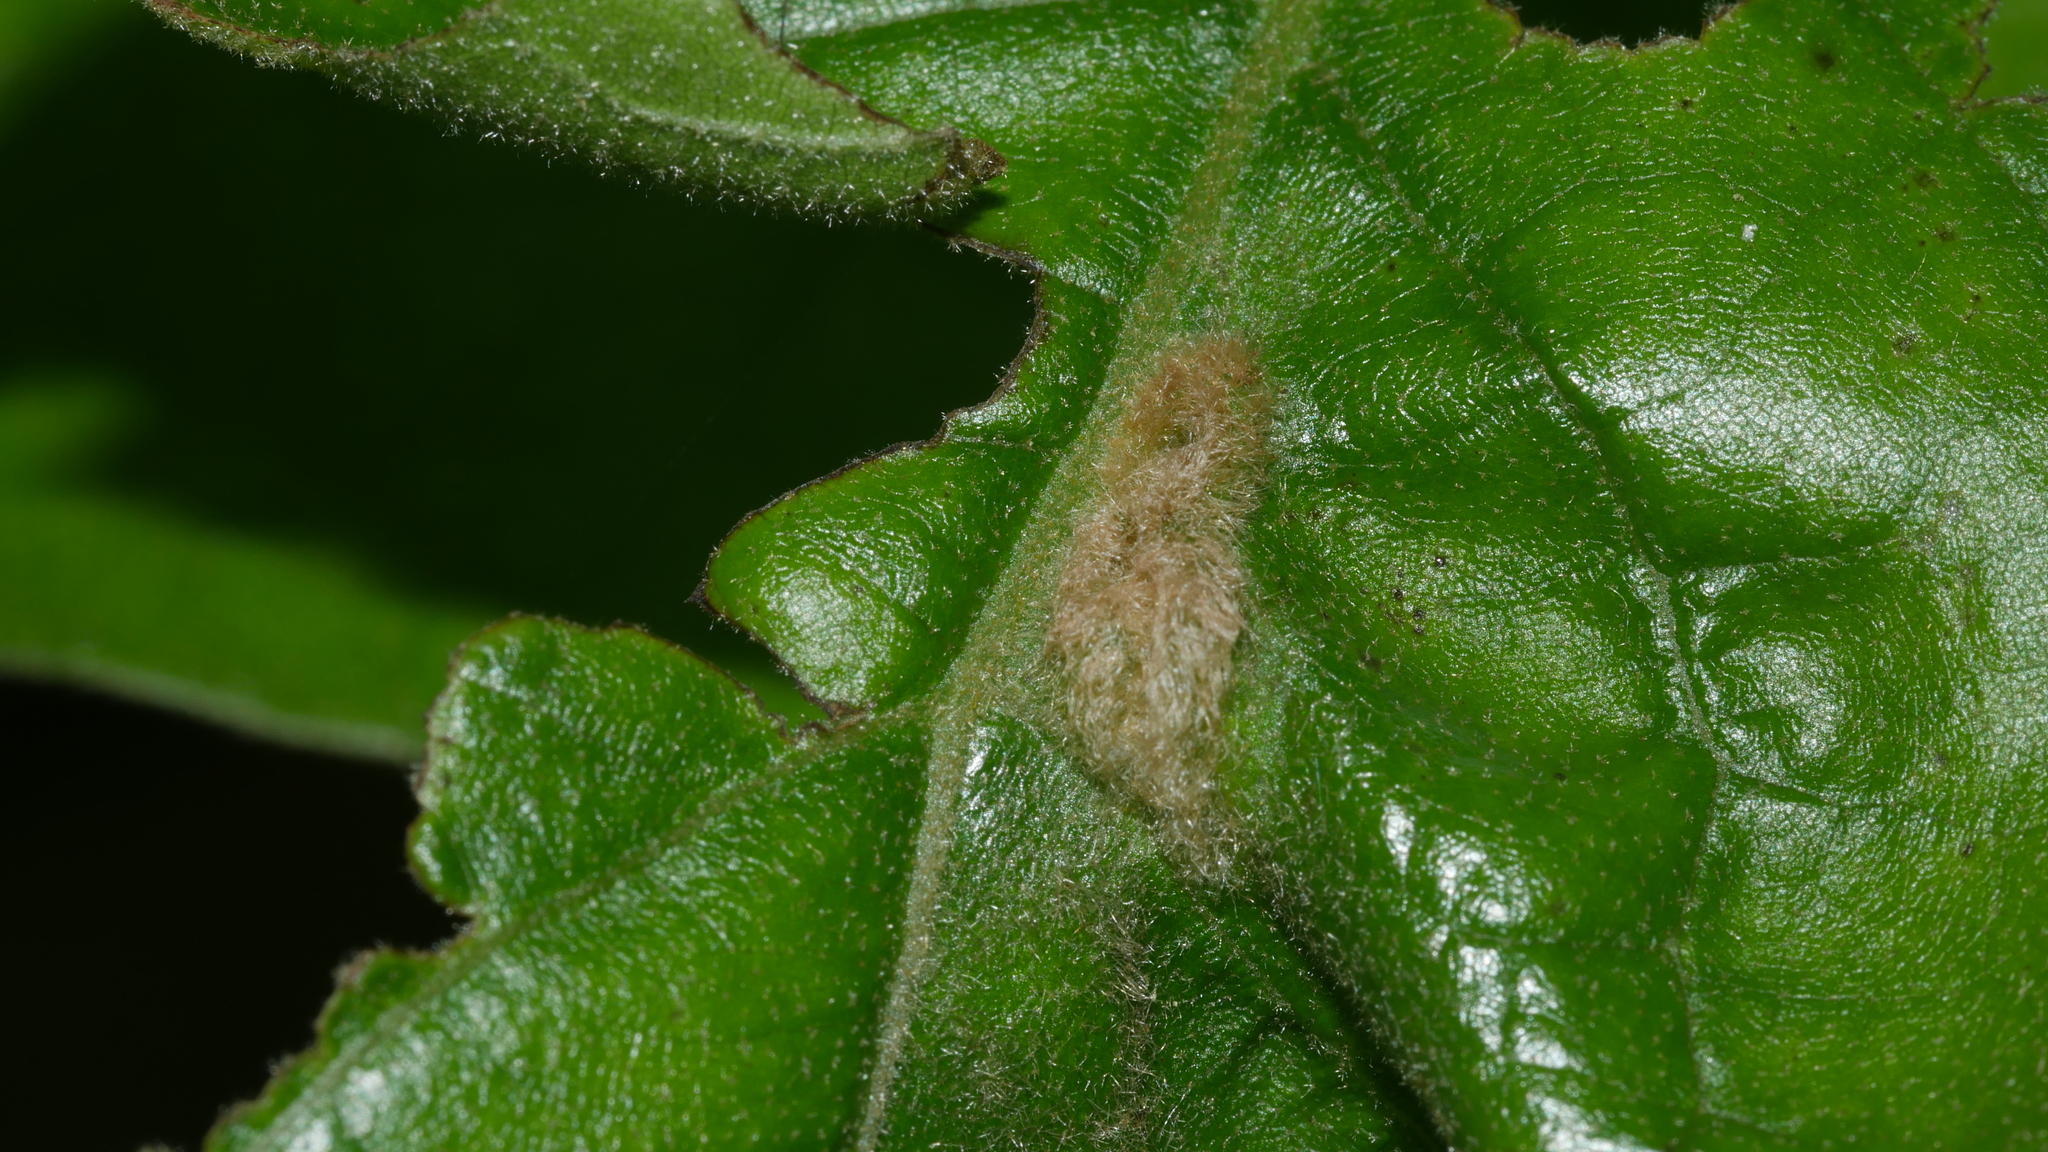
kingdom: Animalia
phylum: Arthropoda
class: Insecta
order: Diptera
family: Cecidomyiidae
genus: Macrodiplosis
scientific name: Macrodiplosis niveipila
